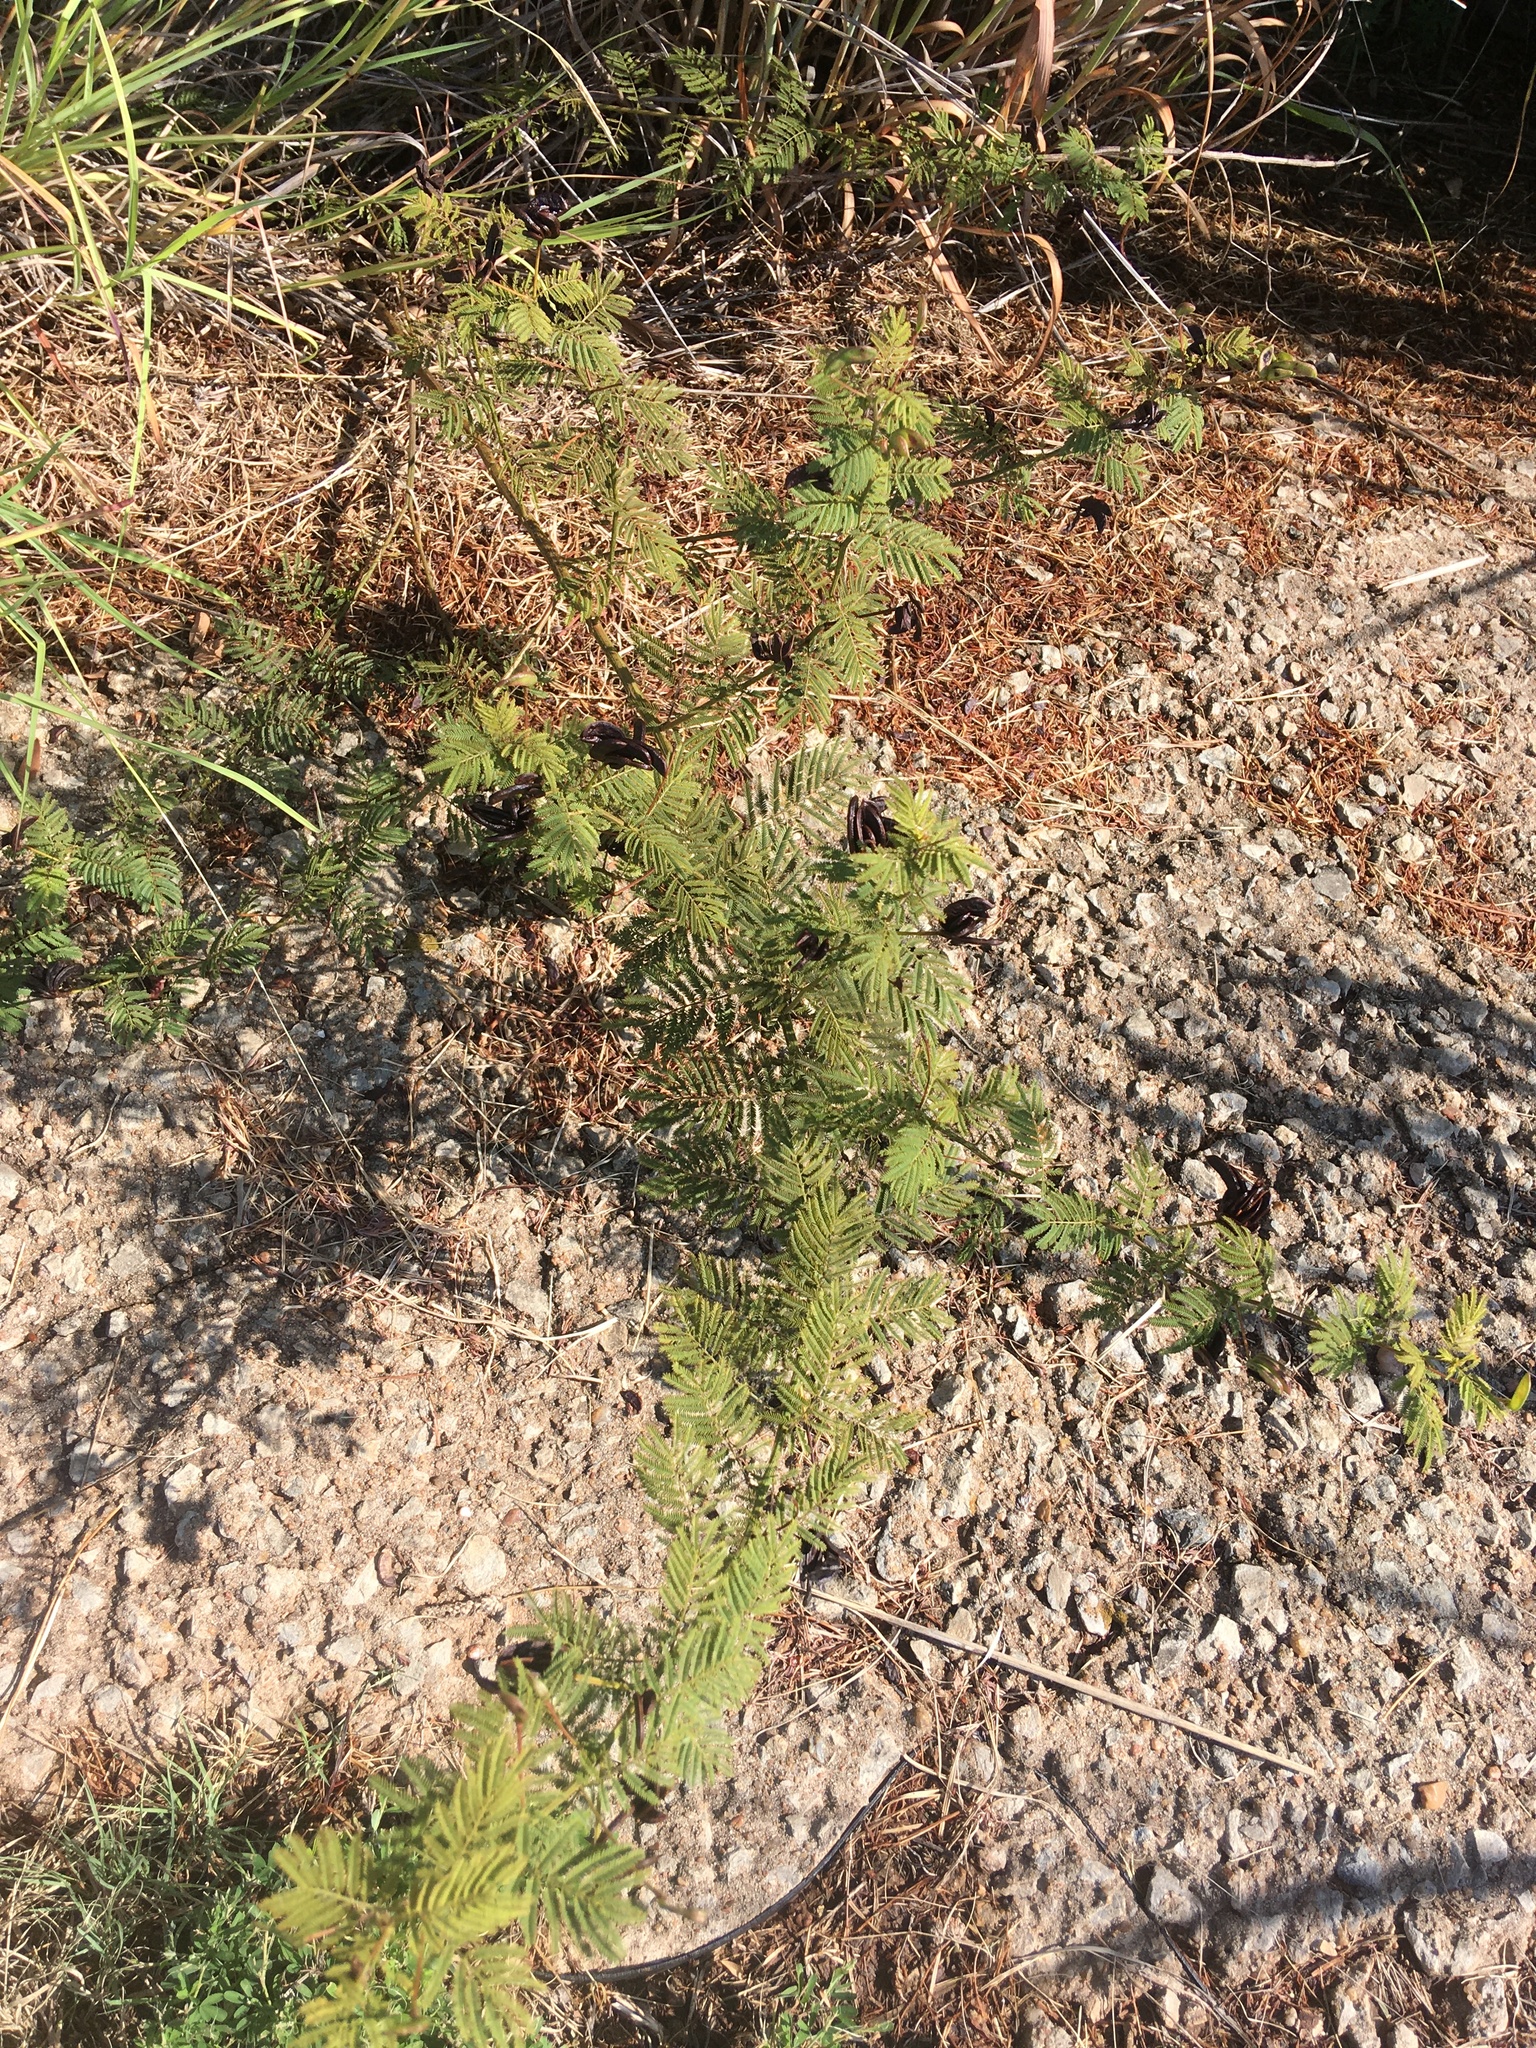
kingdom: Plantae
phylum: Tracheophyta
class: Magnoliopsida
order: Fabales
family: Fabaceae
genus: Desmanthus
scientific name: Desmanthus illinoensis
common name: Illinois bundle-flower
